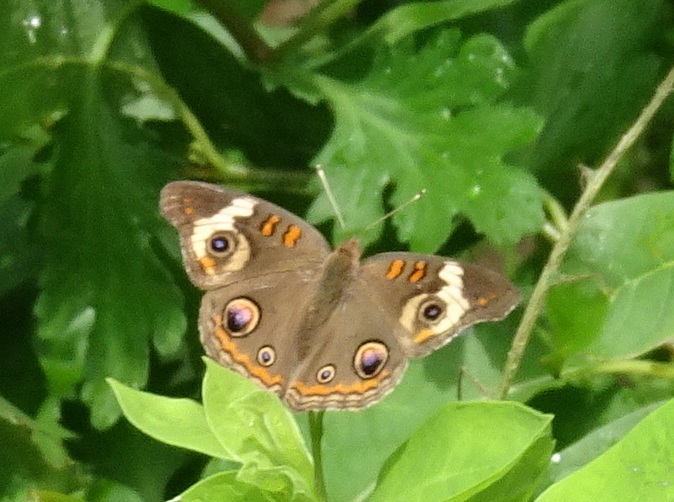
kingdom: Animalia
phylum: Arthropoda
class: Insecta
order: Lepidoptera
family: Nymphalidae
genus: Junonia
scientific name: Junonia coenia
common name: Common buckeye
